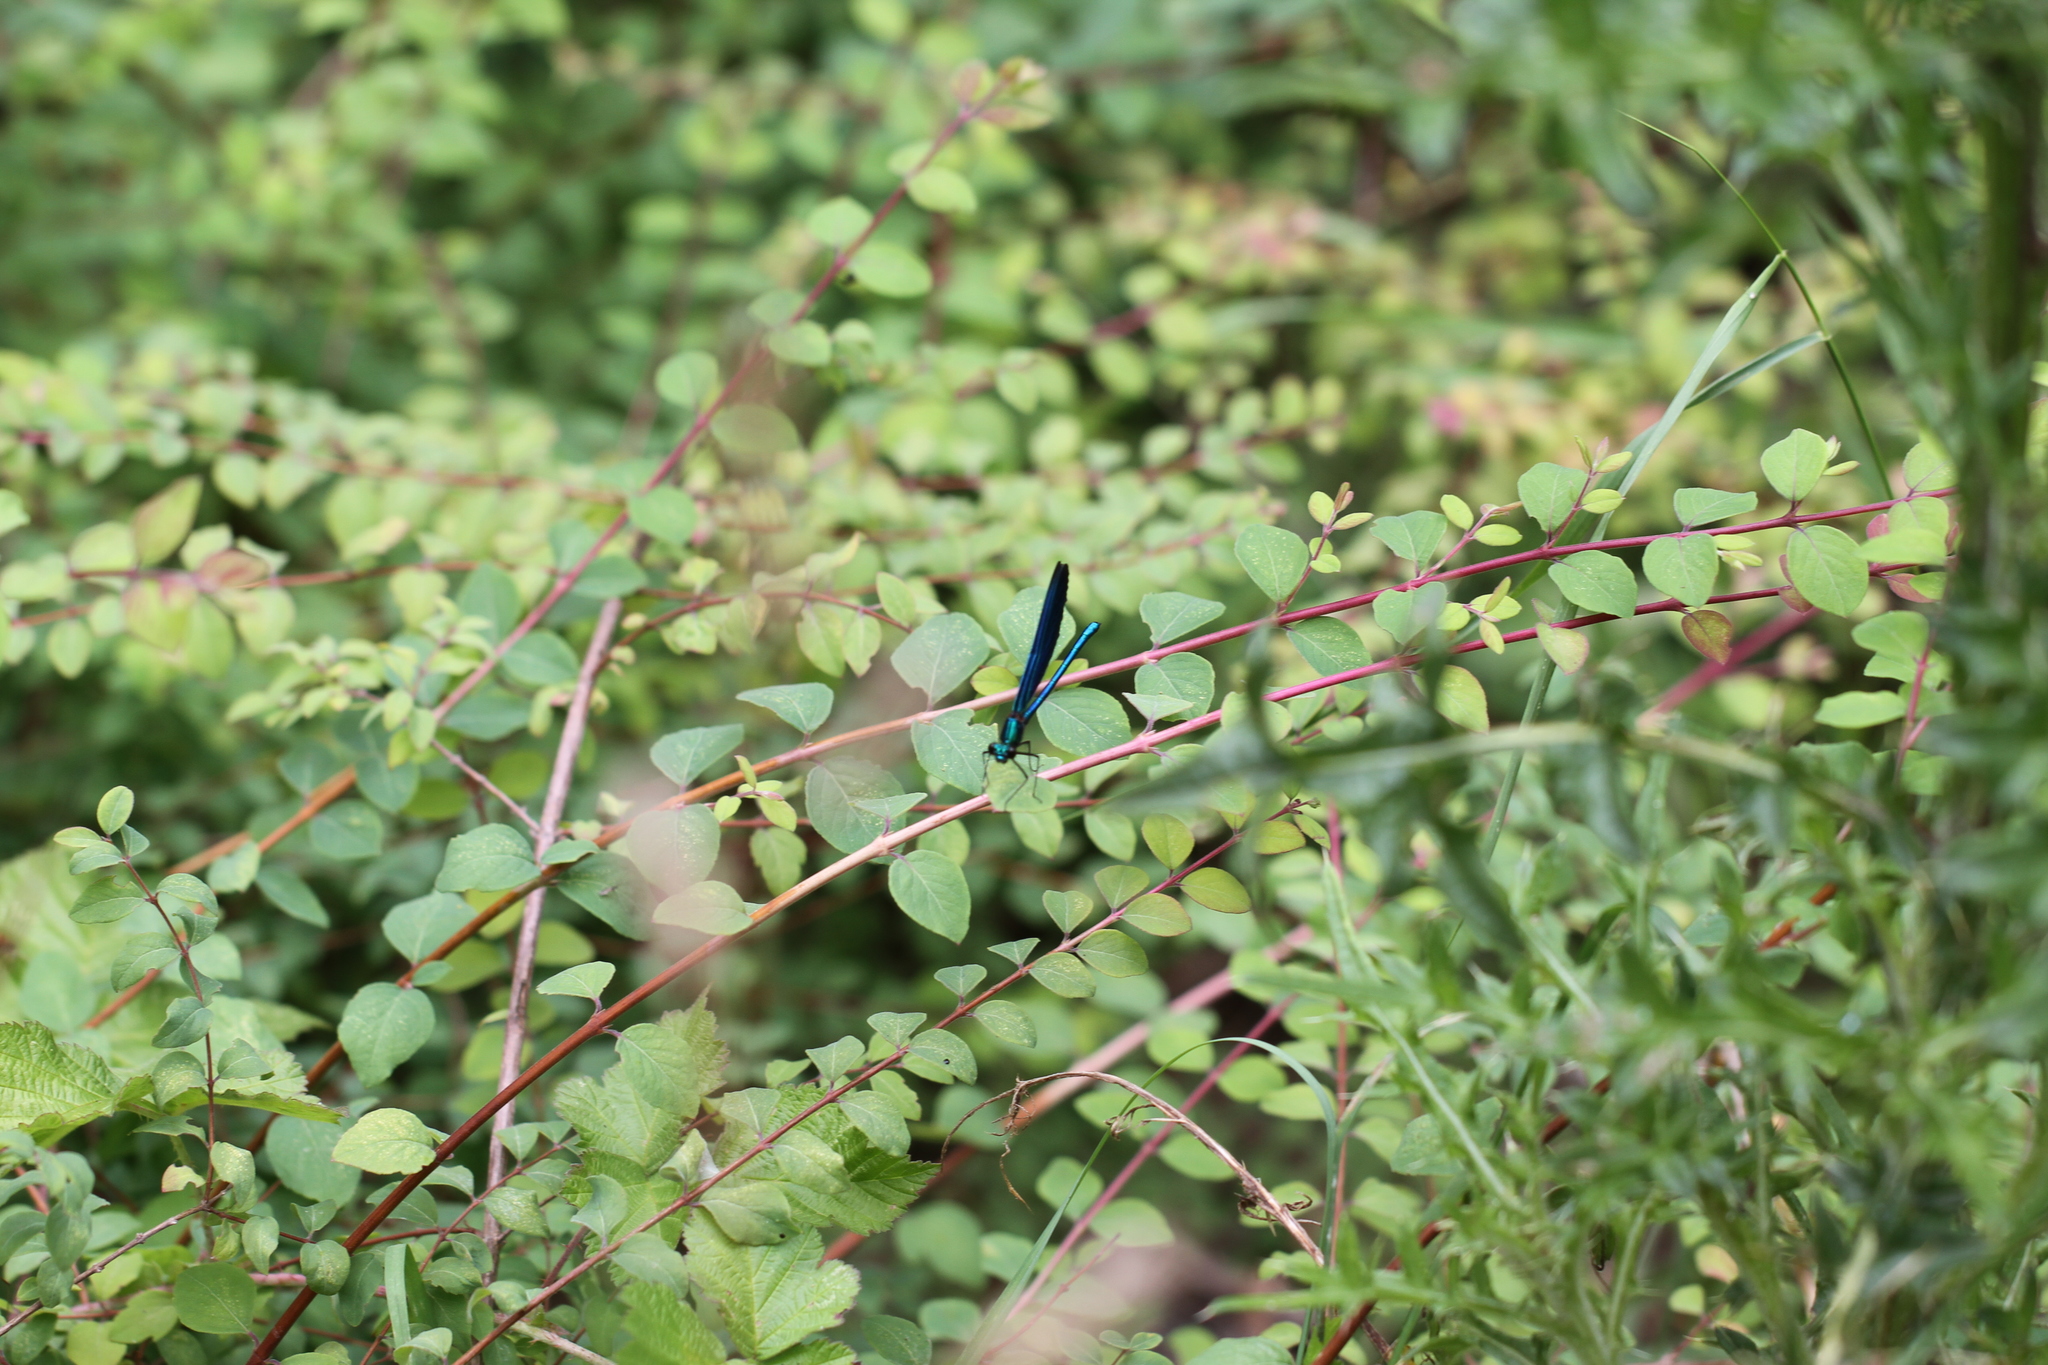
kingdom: Animalia
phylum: Arthropoda
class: Insecta
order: Odonata
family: Calopterygidae
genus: Calopteryx
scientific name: Calopteryx virgo
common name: Beautiful demoiselle
